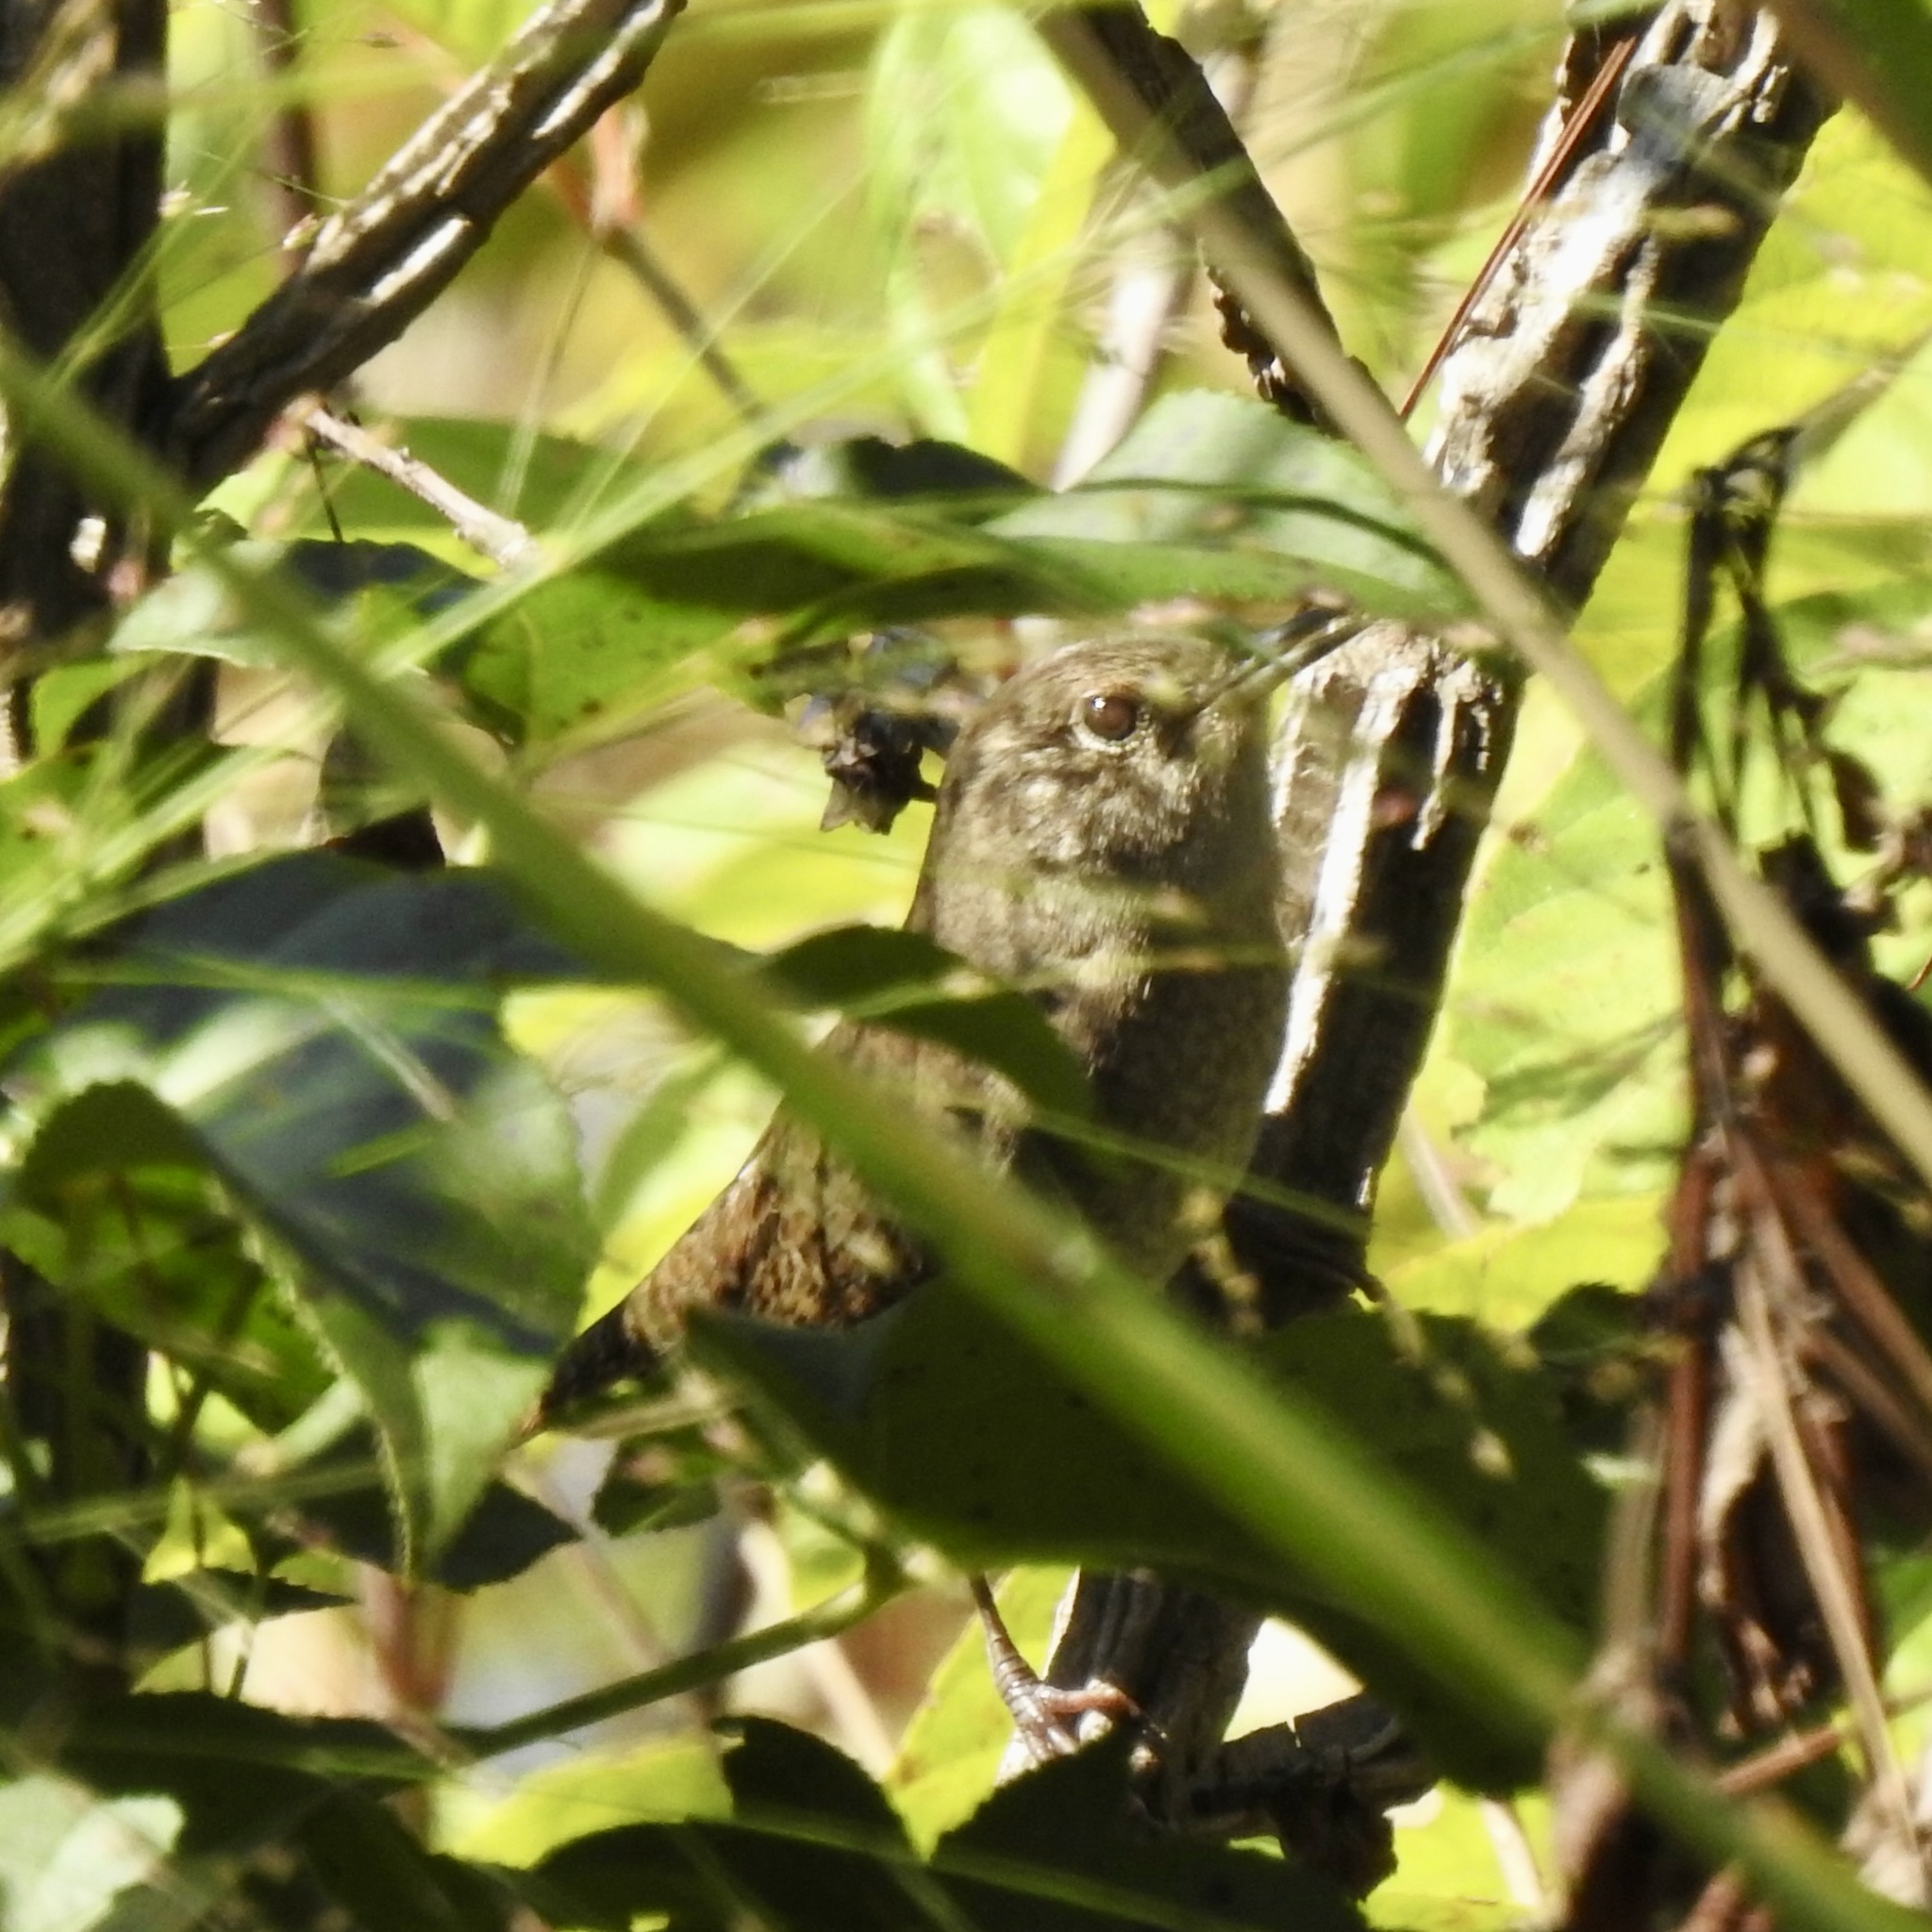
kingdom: Animalia
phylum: Chordata
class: Aves
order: Passeriformes
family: Troglodytidae
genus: Troglodytes
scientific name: Troglodytes aedon
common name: House wren
